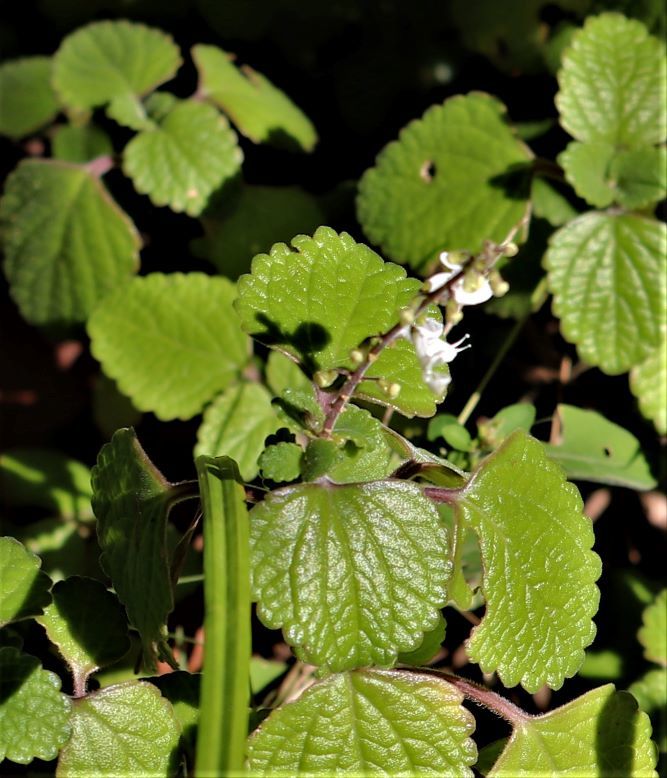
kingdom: Plantae
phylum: Tracheophyta
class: Magnoliopsida
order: Lamiales
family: Lamiaceae
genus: Coleus
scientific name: Coleus madagascariensis
